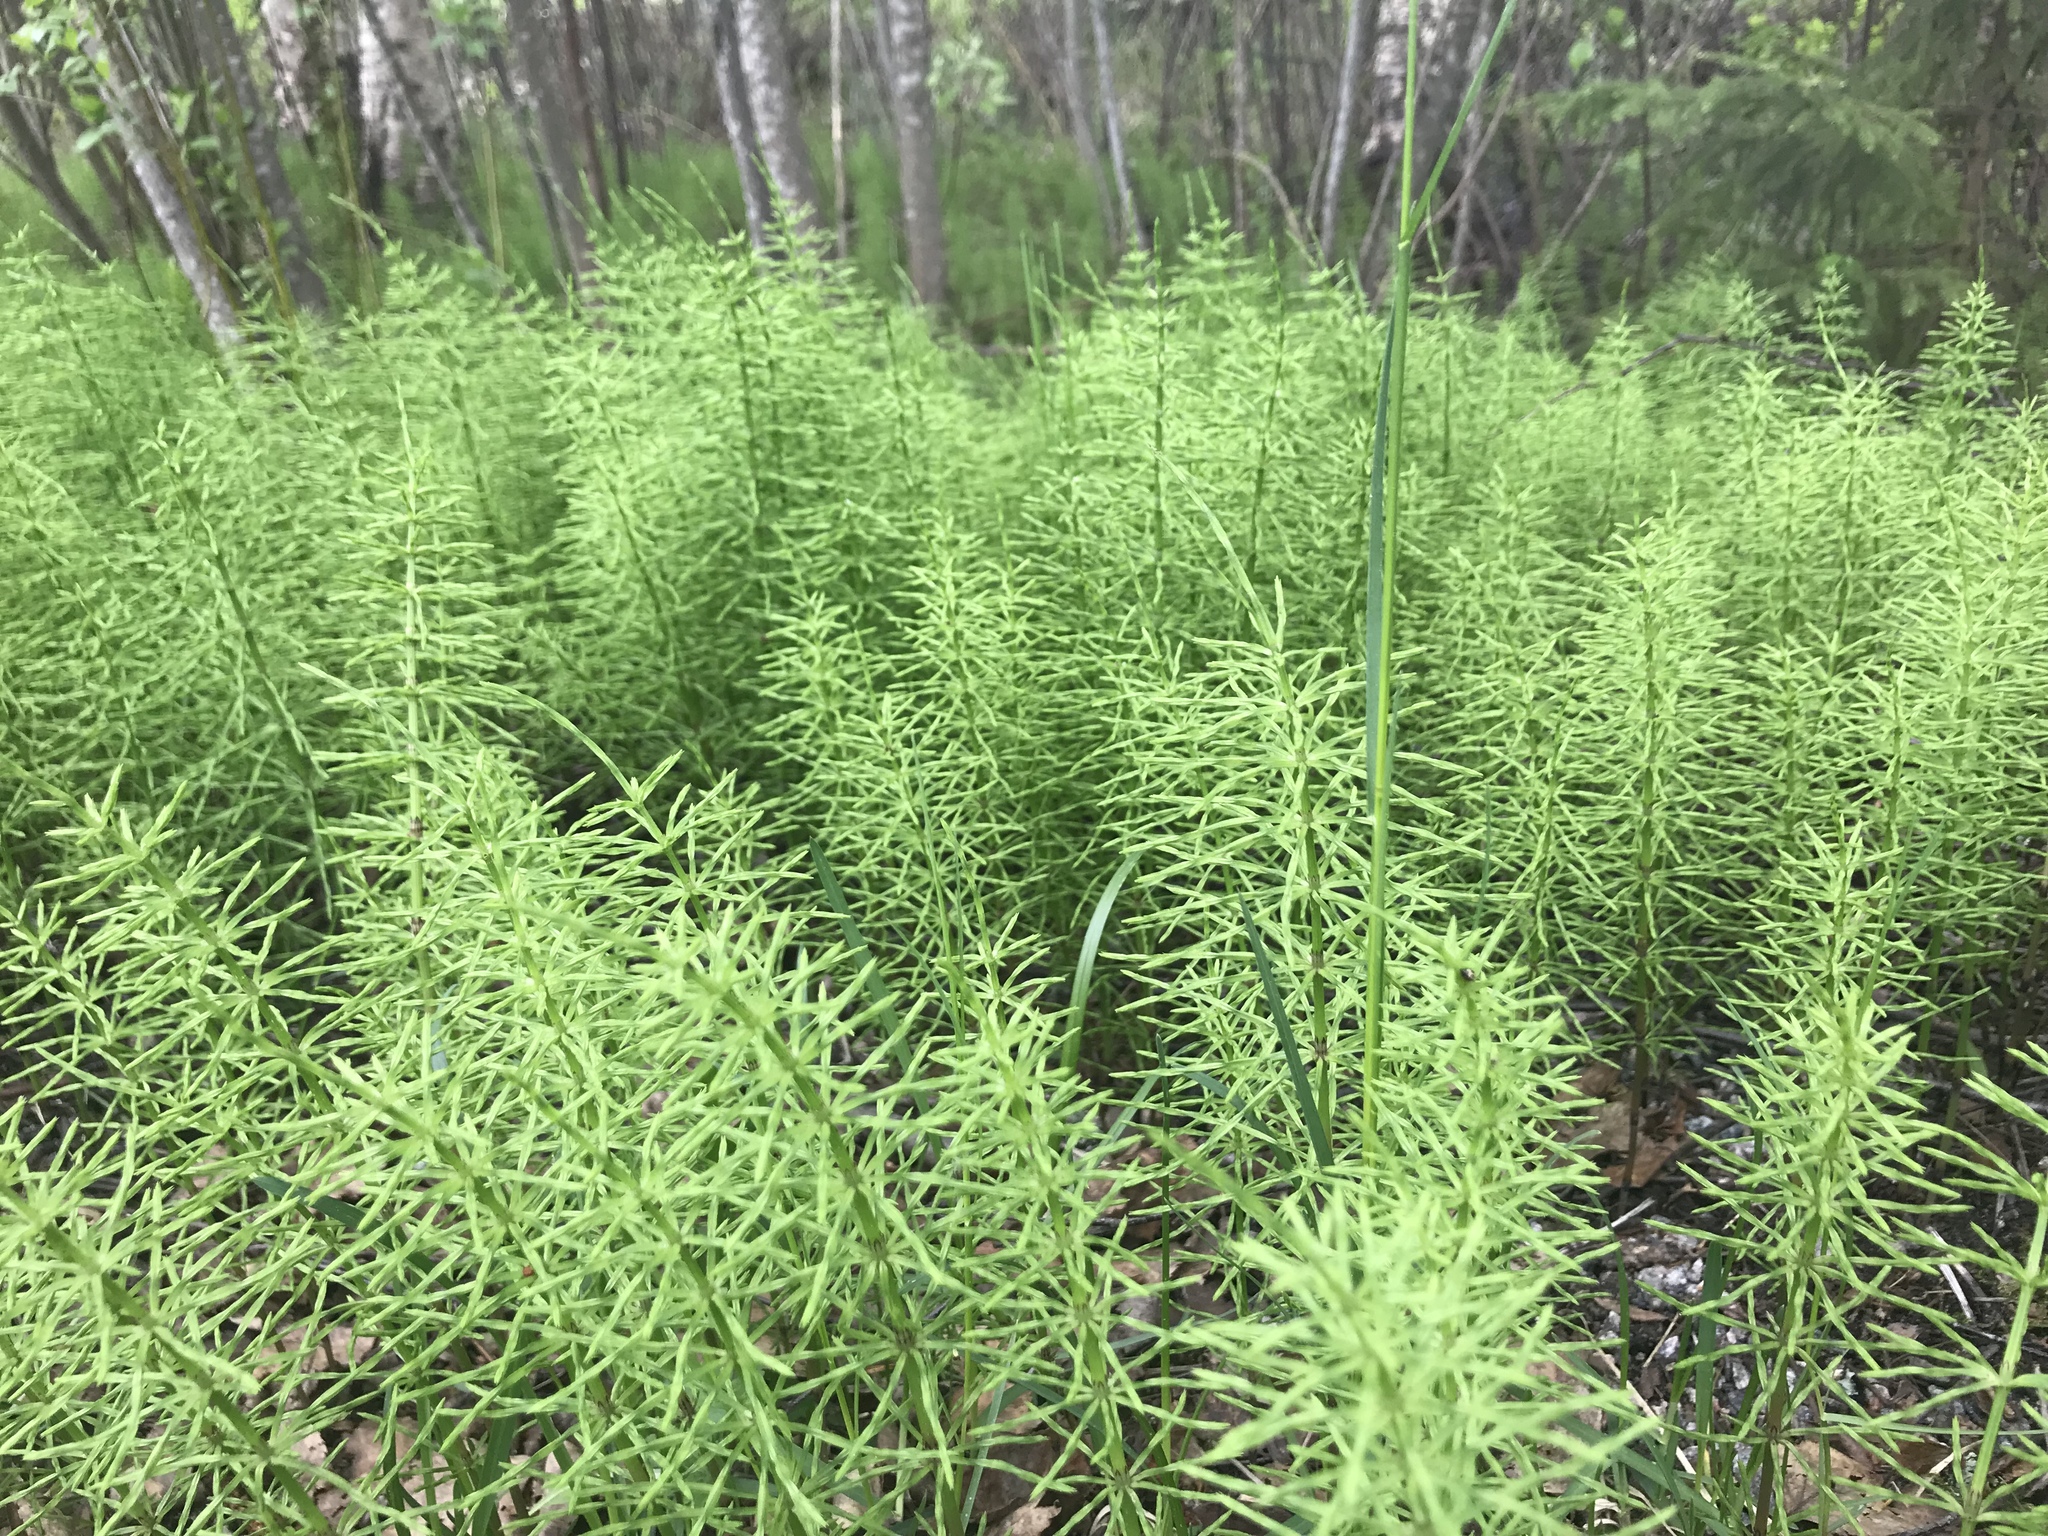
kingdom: Plantae
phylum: Tracheophyta
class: Polypodiopsida
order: Equisetales
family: Equisetaceae
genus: Equisetum
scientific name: Equisetum pratense
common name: Meadow horsetail
